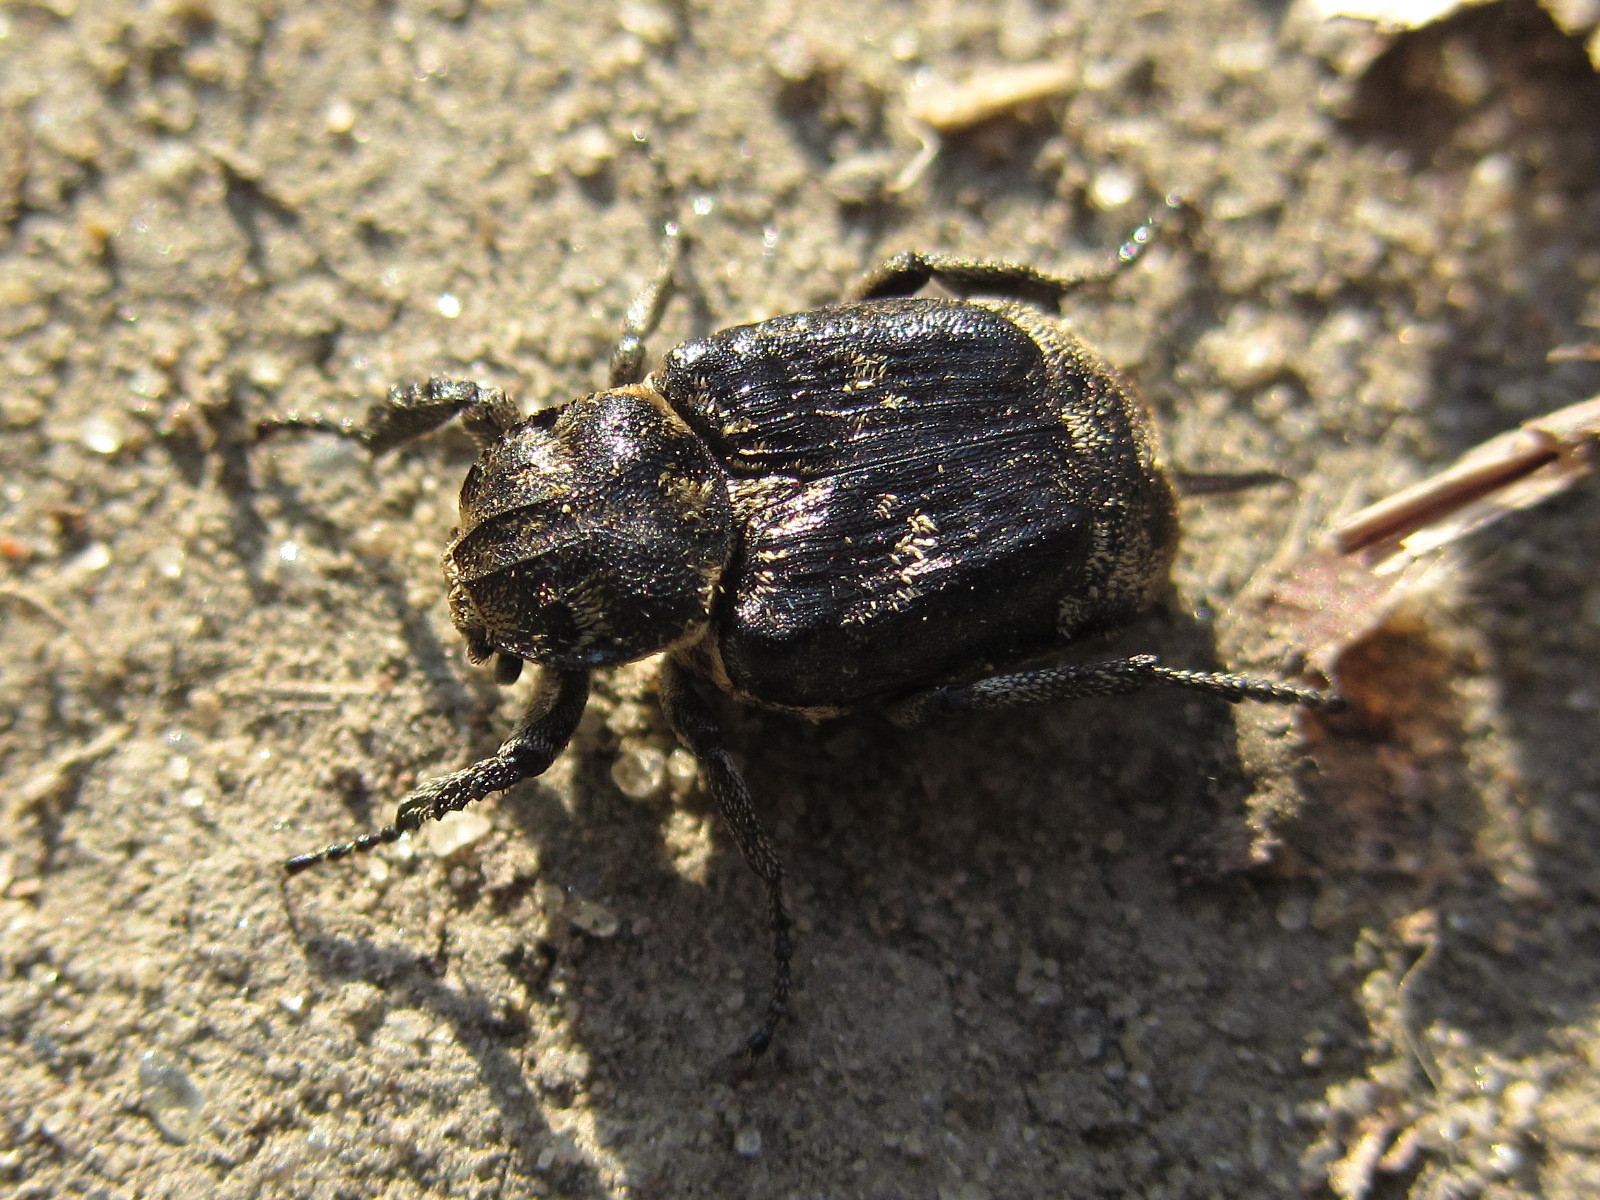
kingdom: Animalia
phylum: Arthropoda
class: Insecta
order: Coleoptera
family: Scarabaeidae
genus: Valgus
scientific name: Valgus hemipterus
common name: Bug flower chafer
